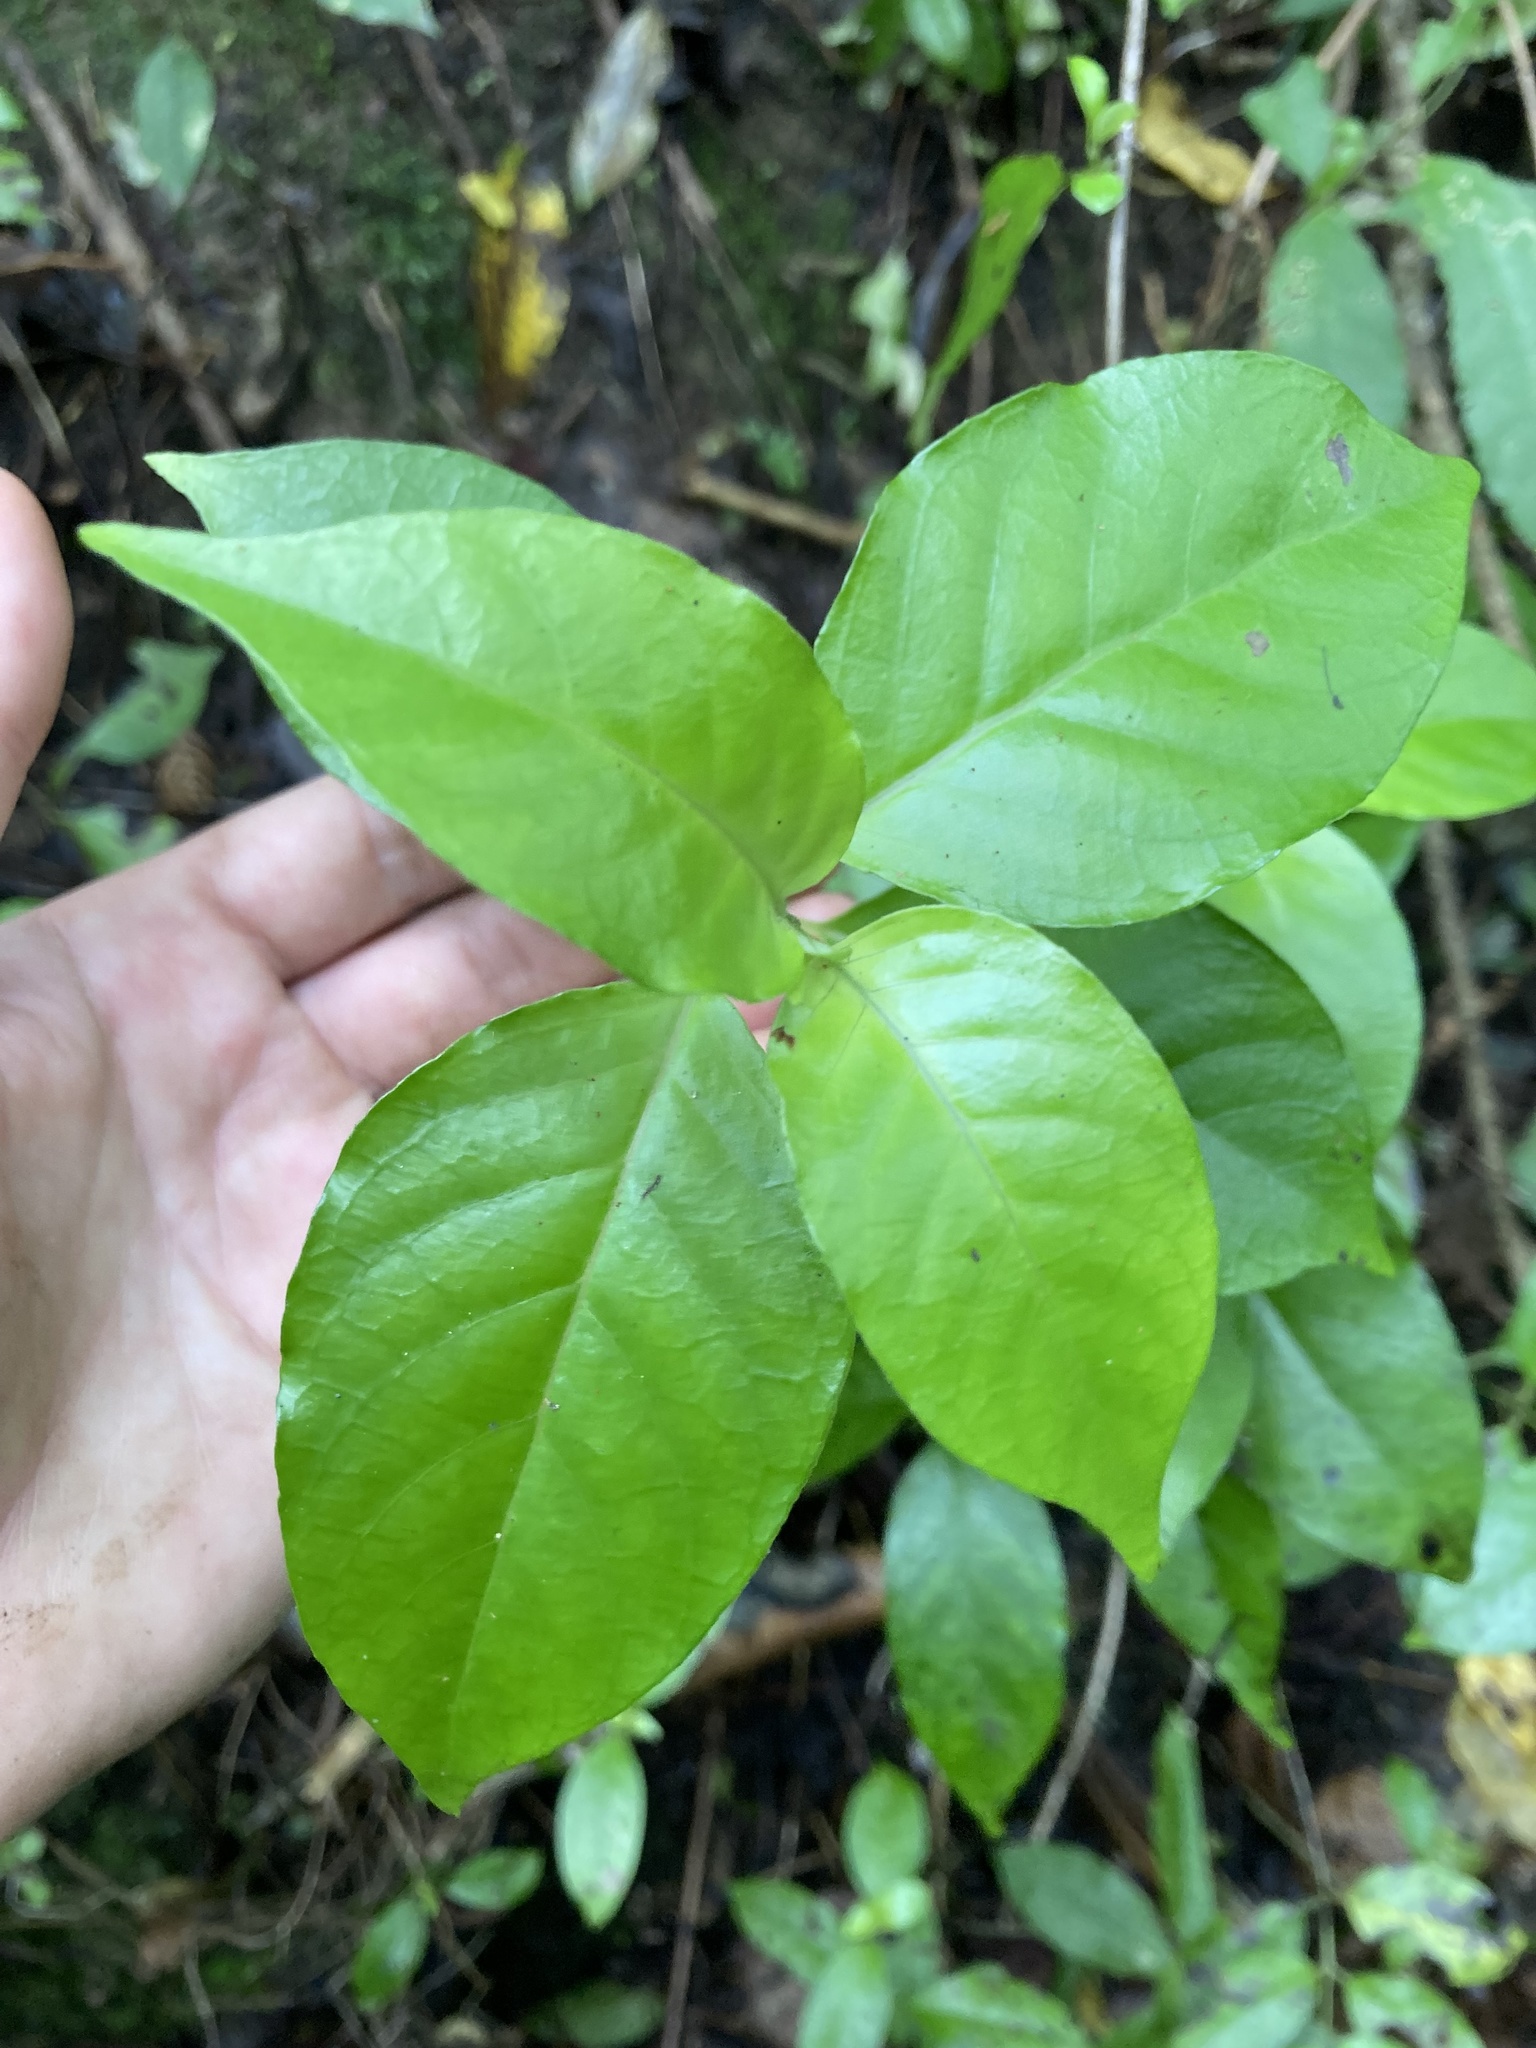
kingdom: Plantae
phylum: Tracheophyta
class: Magnoliopsida
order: Gentianales
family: Loganiaceae
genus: Geniostoma
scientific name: Geniostoma ligustrifolium
